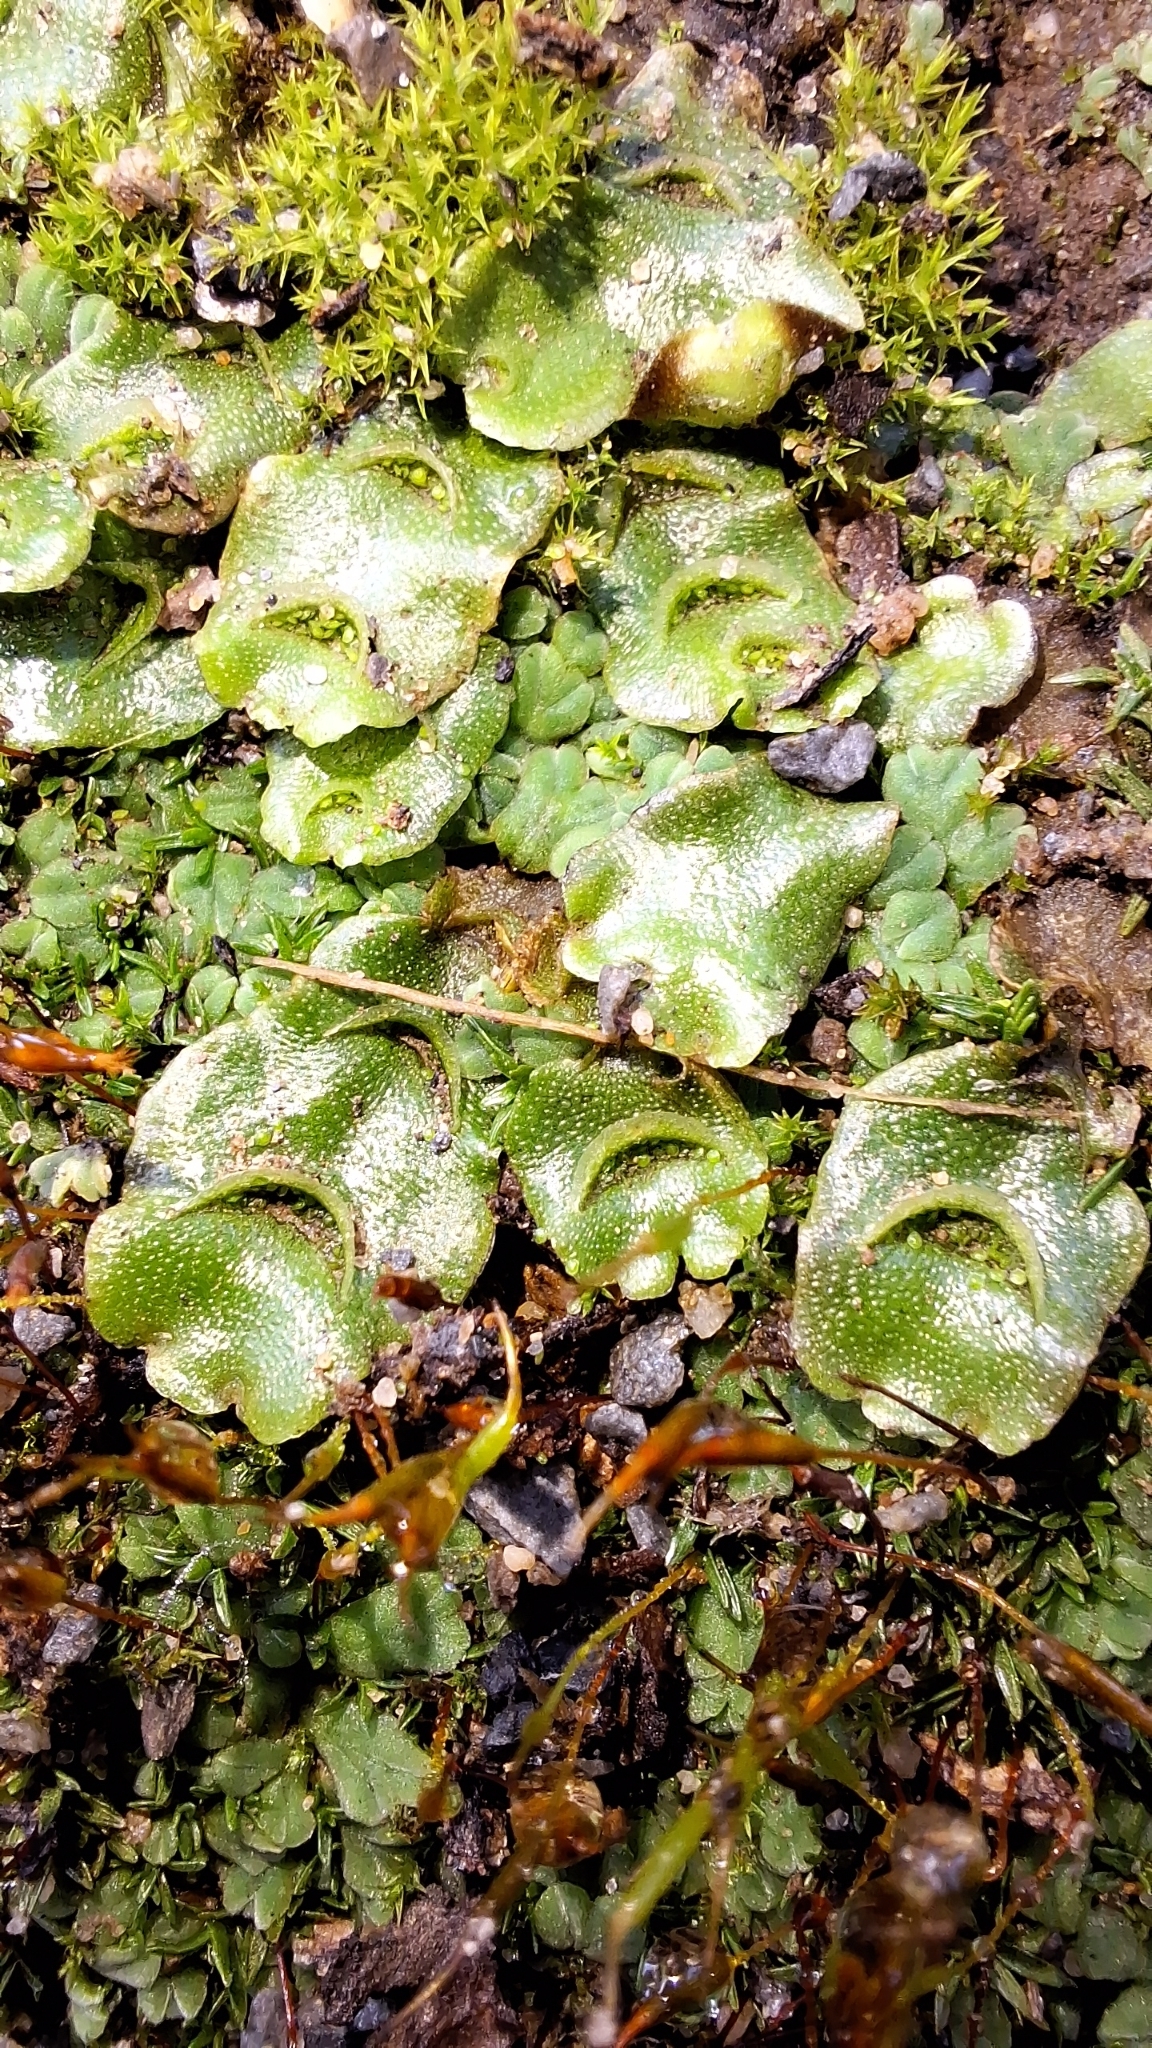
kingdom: Plantae
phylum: Marchantiophyta
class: Marchantiopsida
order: Lunulariales
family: Lunulariaceae
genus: Lunularia
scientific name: Lunularia cruciata
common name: Crescent-cup liverwort
